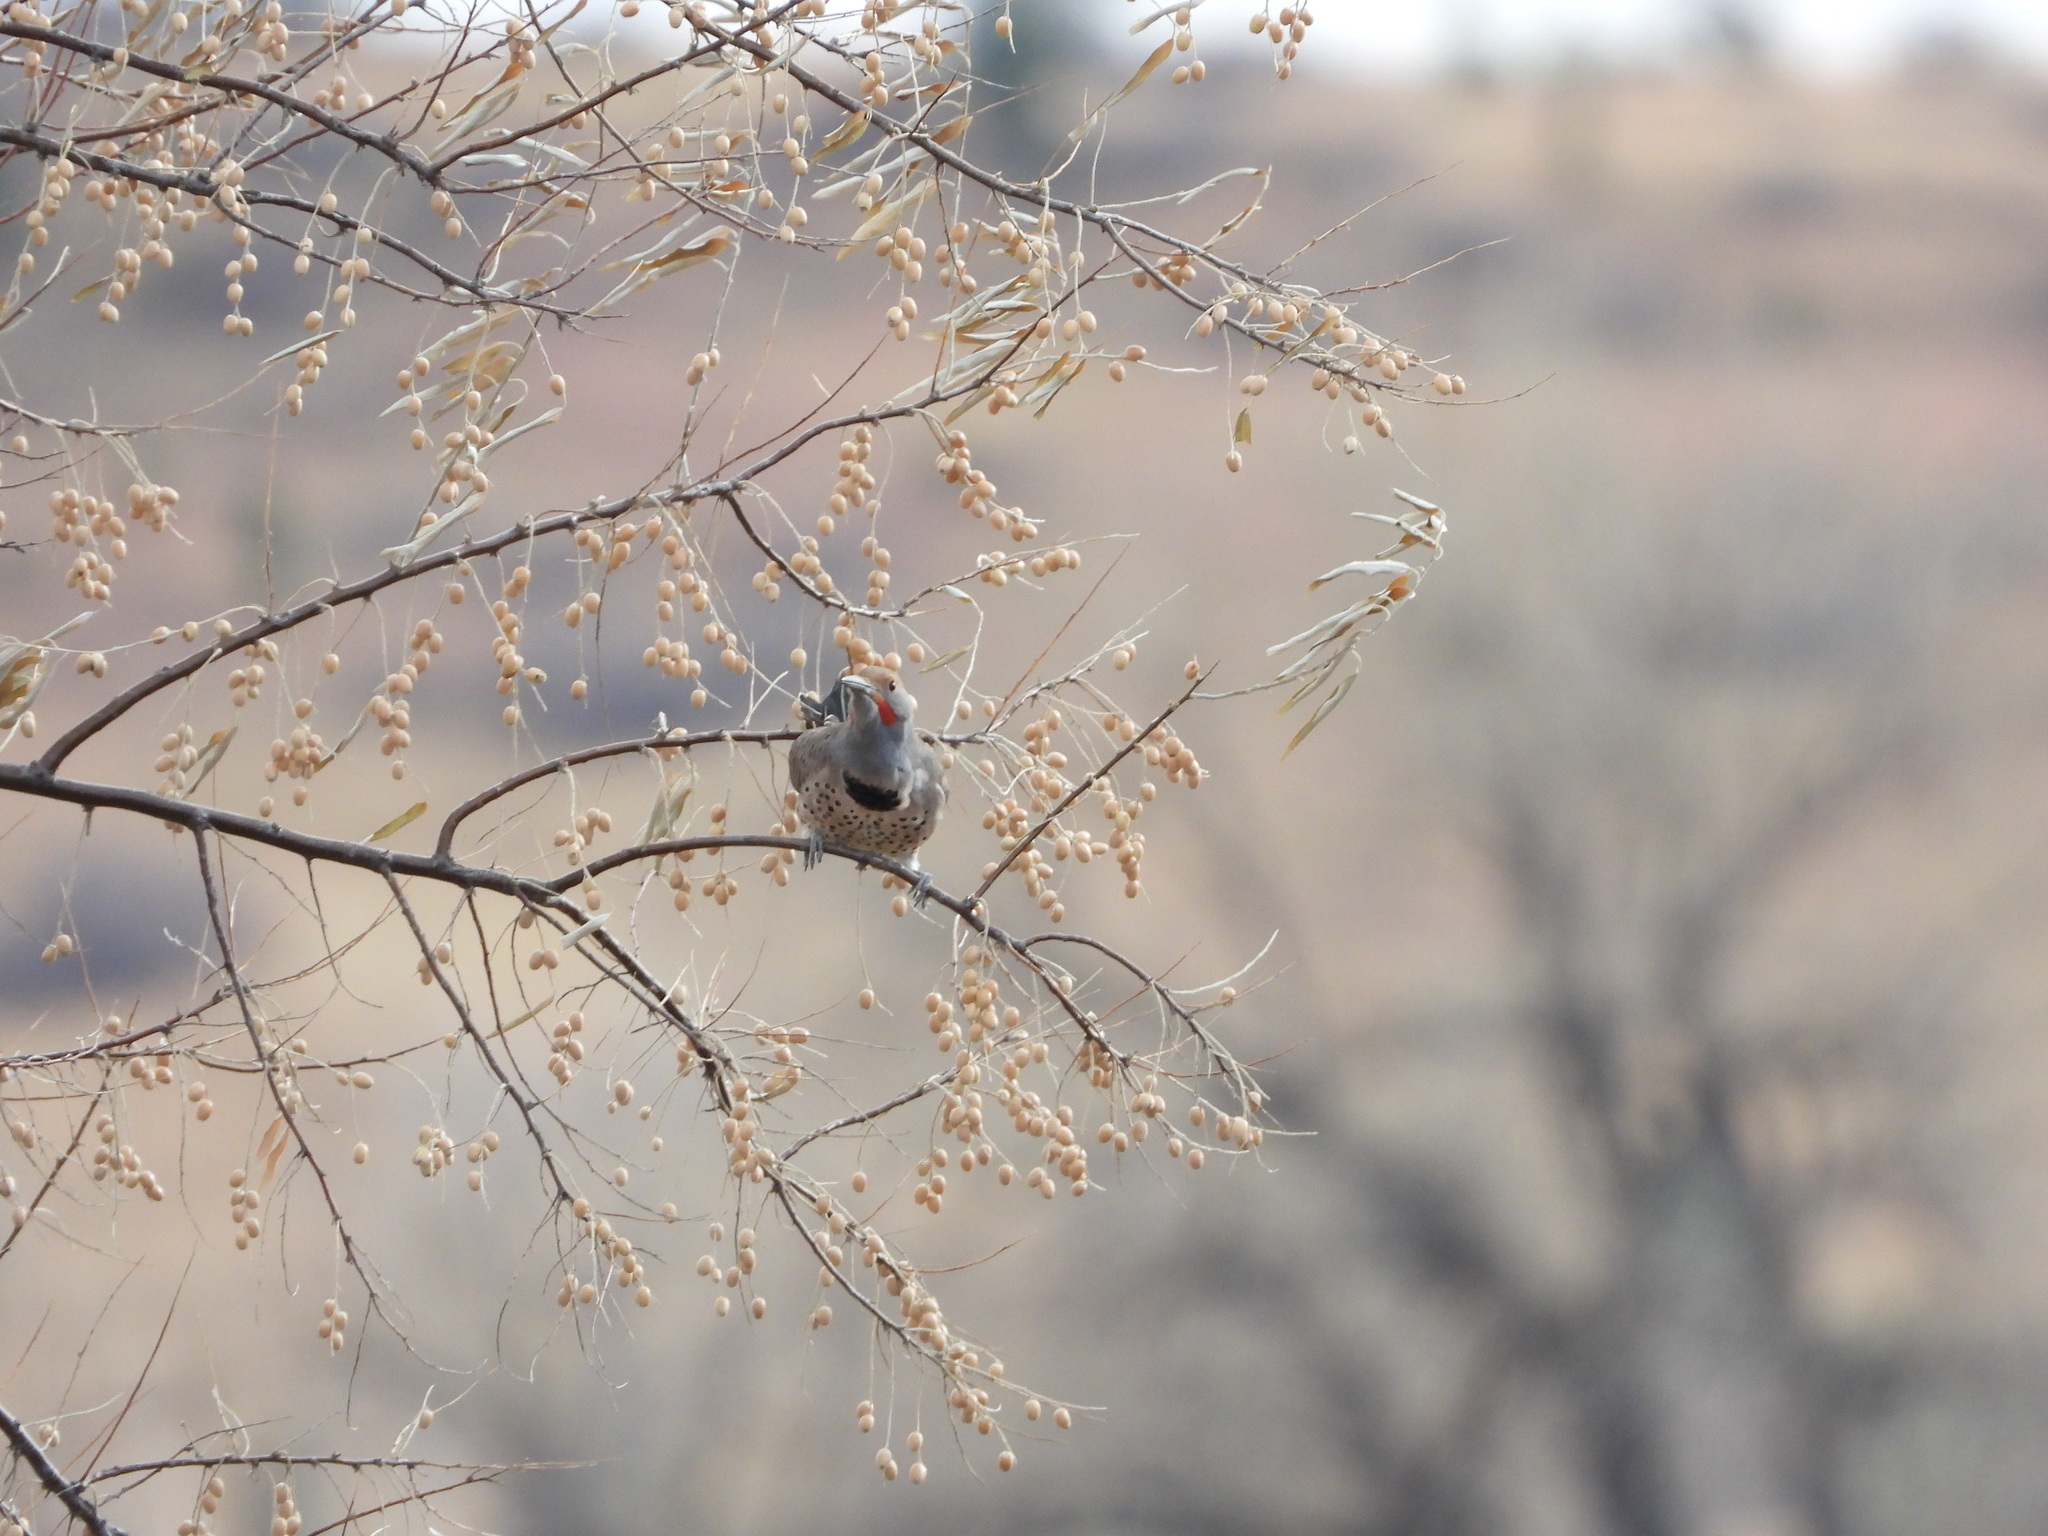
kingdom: Animalia
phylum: Chordata
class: Aves
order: Piciformes
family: Picidae
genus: Colaptes
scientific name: Colaptes auratus
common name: Northern flicker
